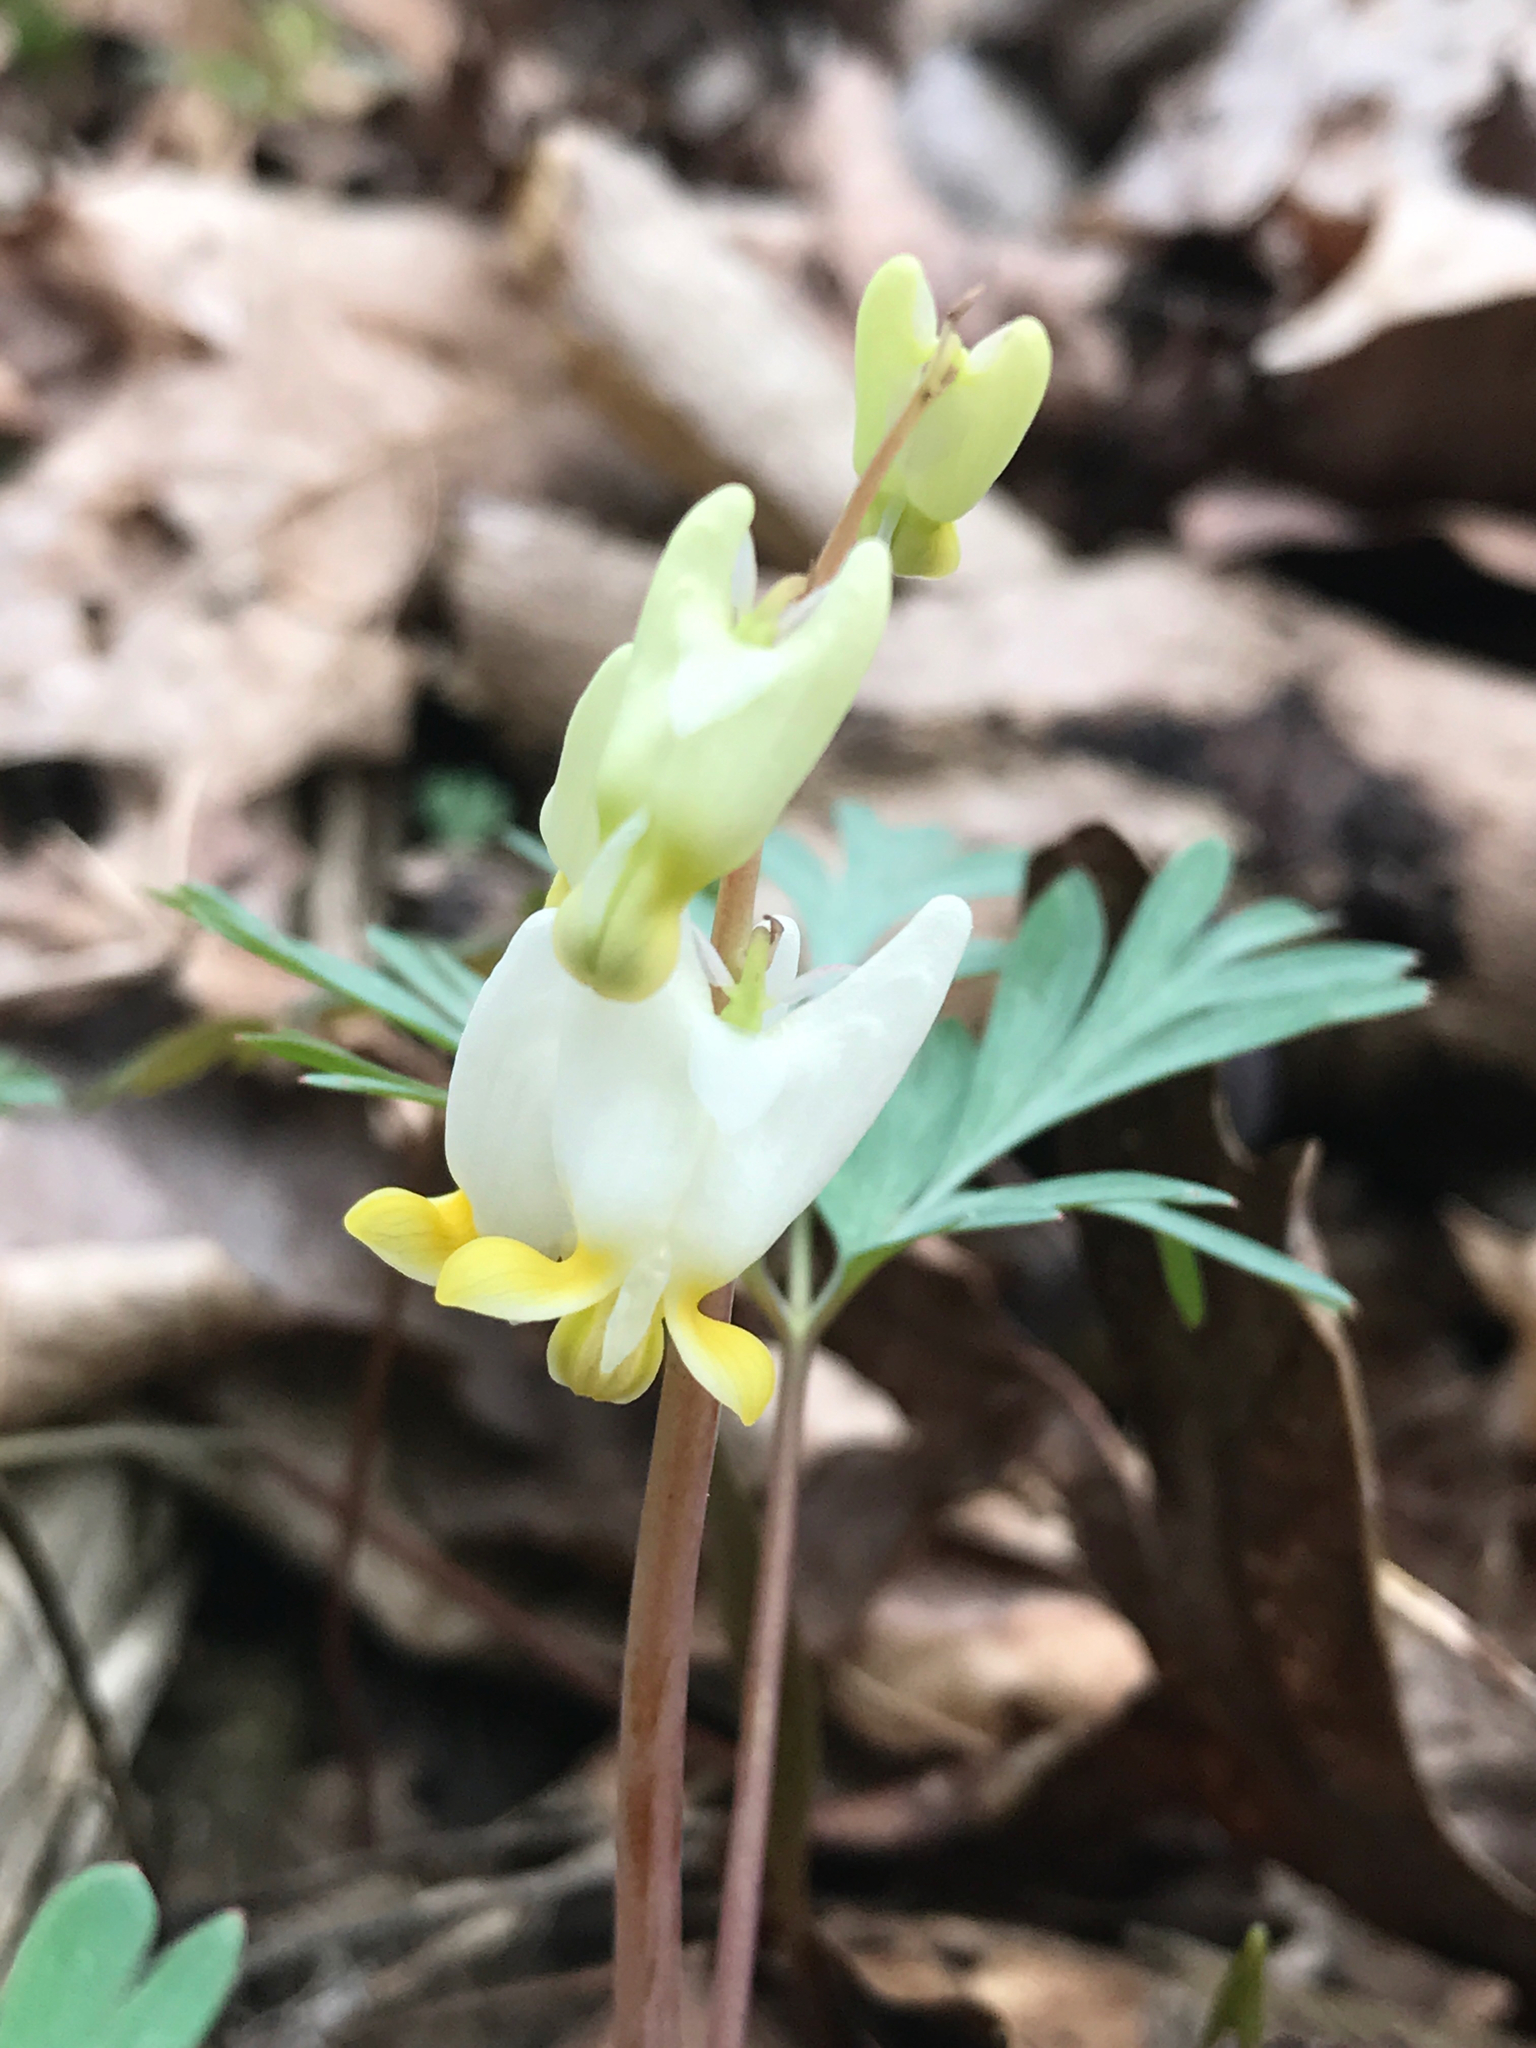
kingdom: Plantae
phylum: Tracheophyta
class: Magnoliopsida
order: Ranunculales
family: Papaveraceae
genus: Dicentra
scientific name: Dicentra cucullaria
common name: Dutchman's breeches
